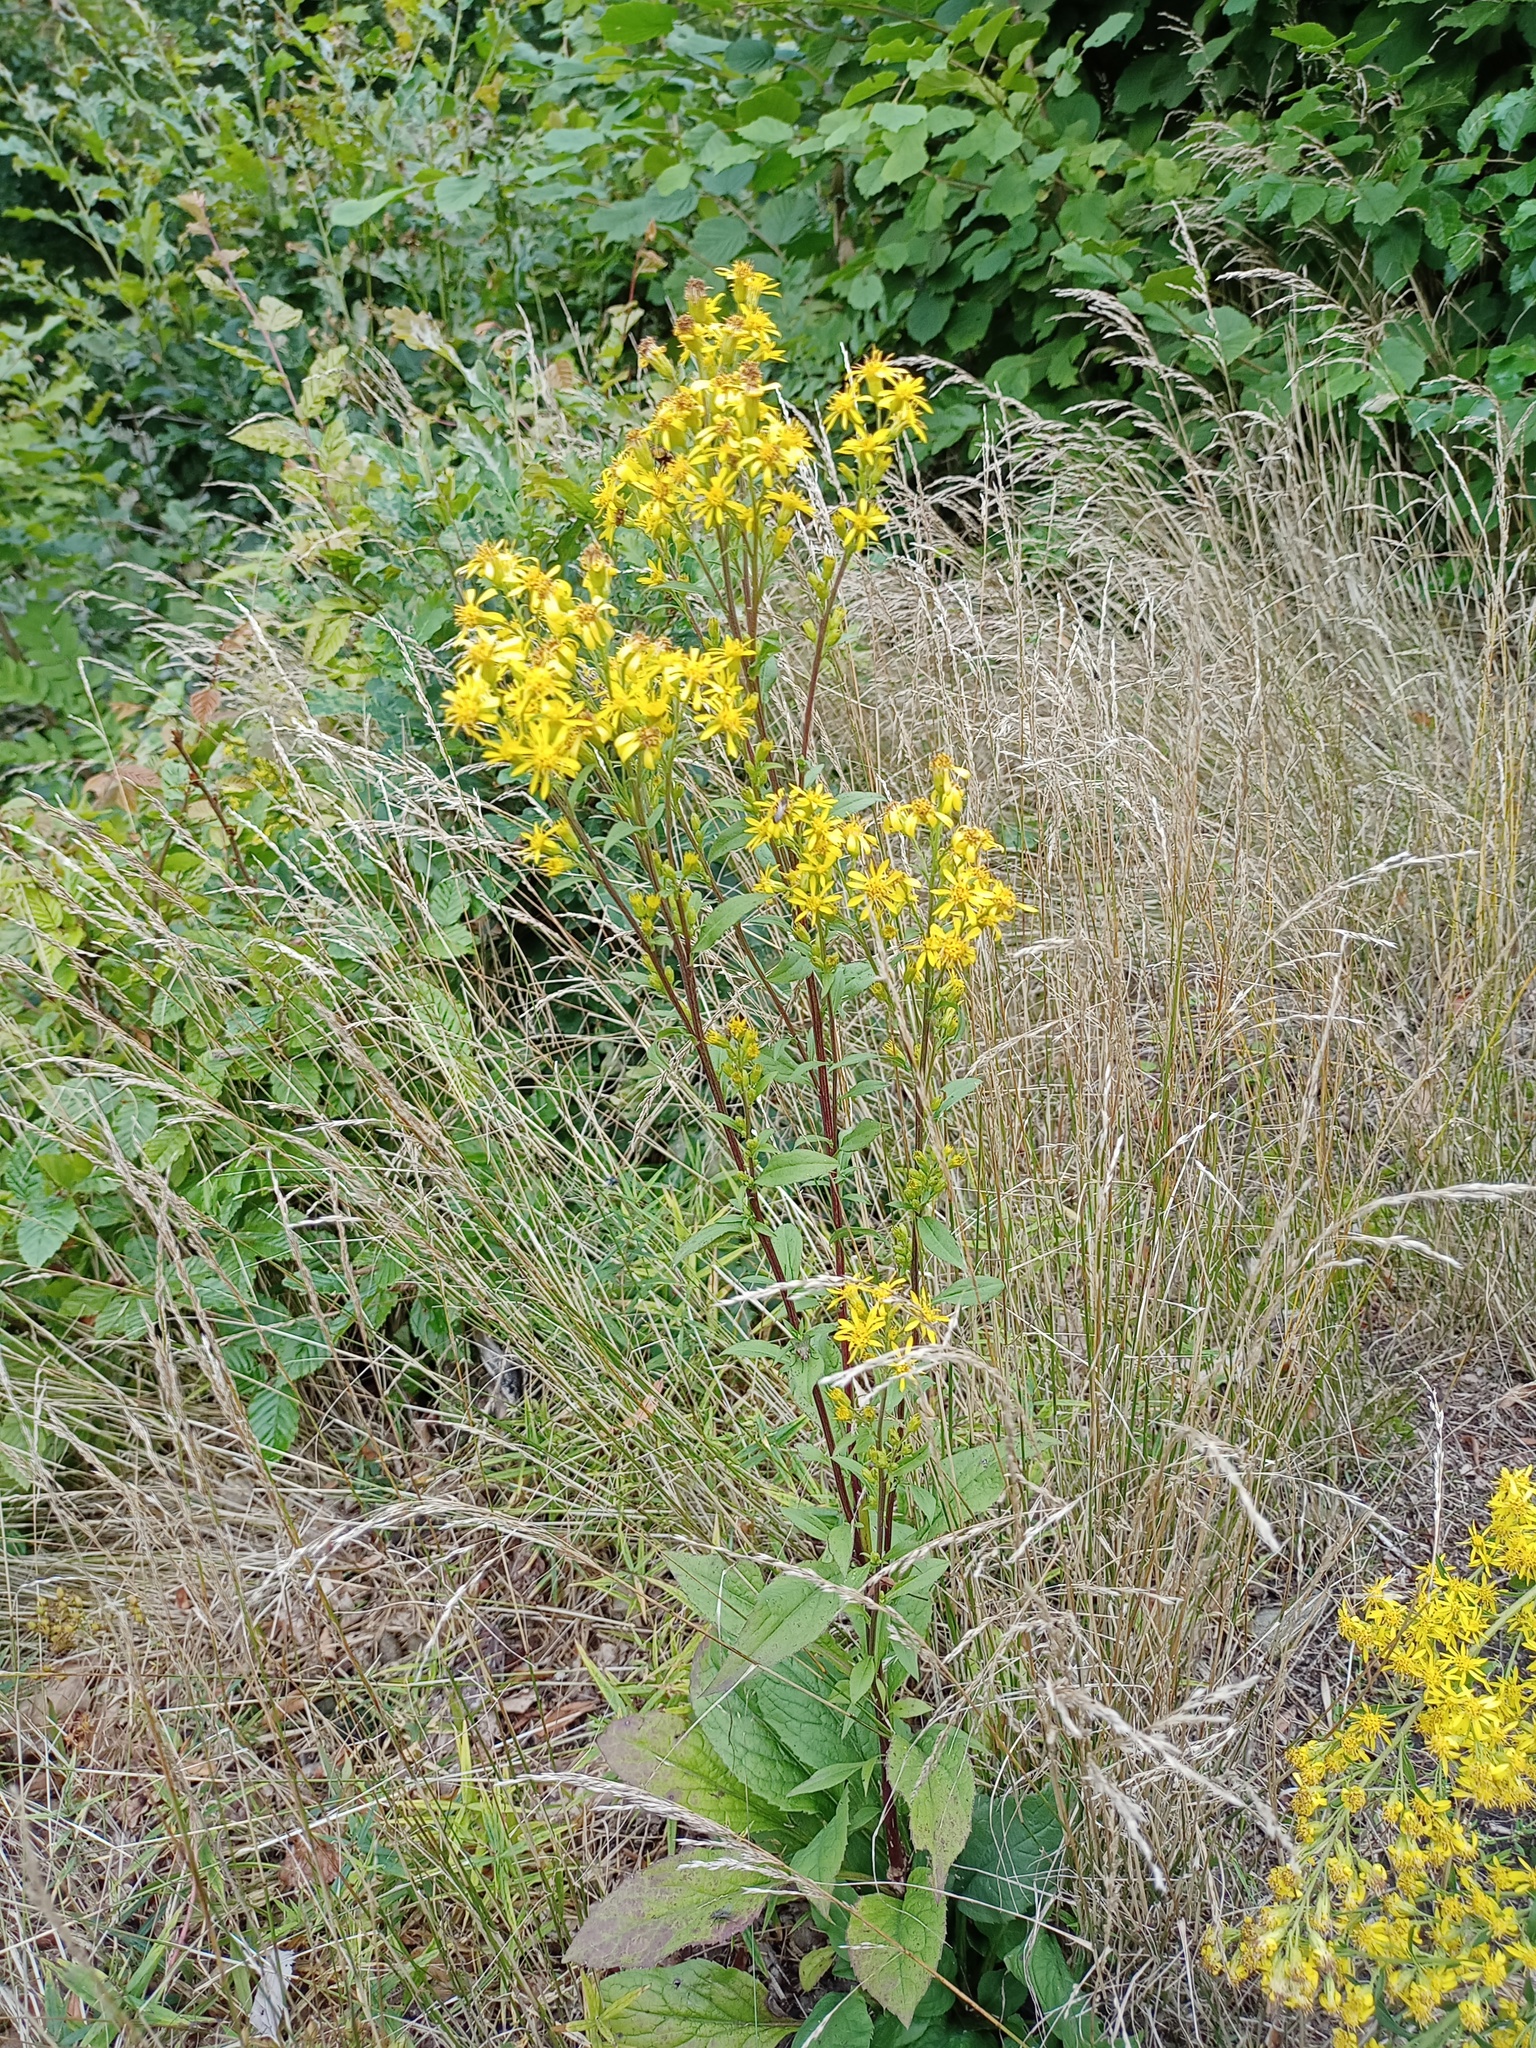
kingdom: Plantae
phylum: Tracheophyta
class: Magnoliopsida
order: Asterales
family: Asteraceae
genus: Solidago
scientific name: Solidago virgaurea
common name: Goldenrod
